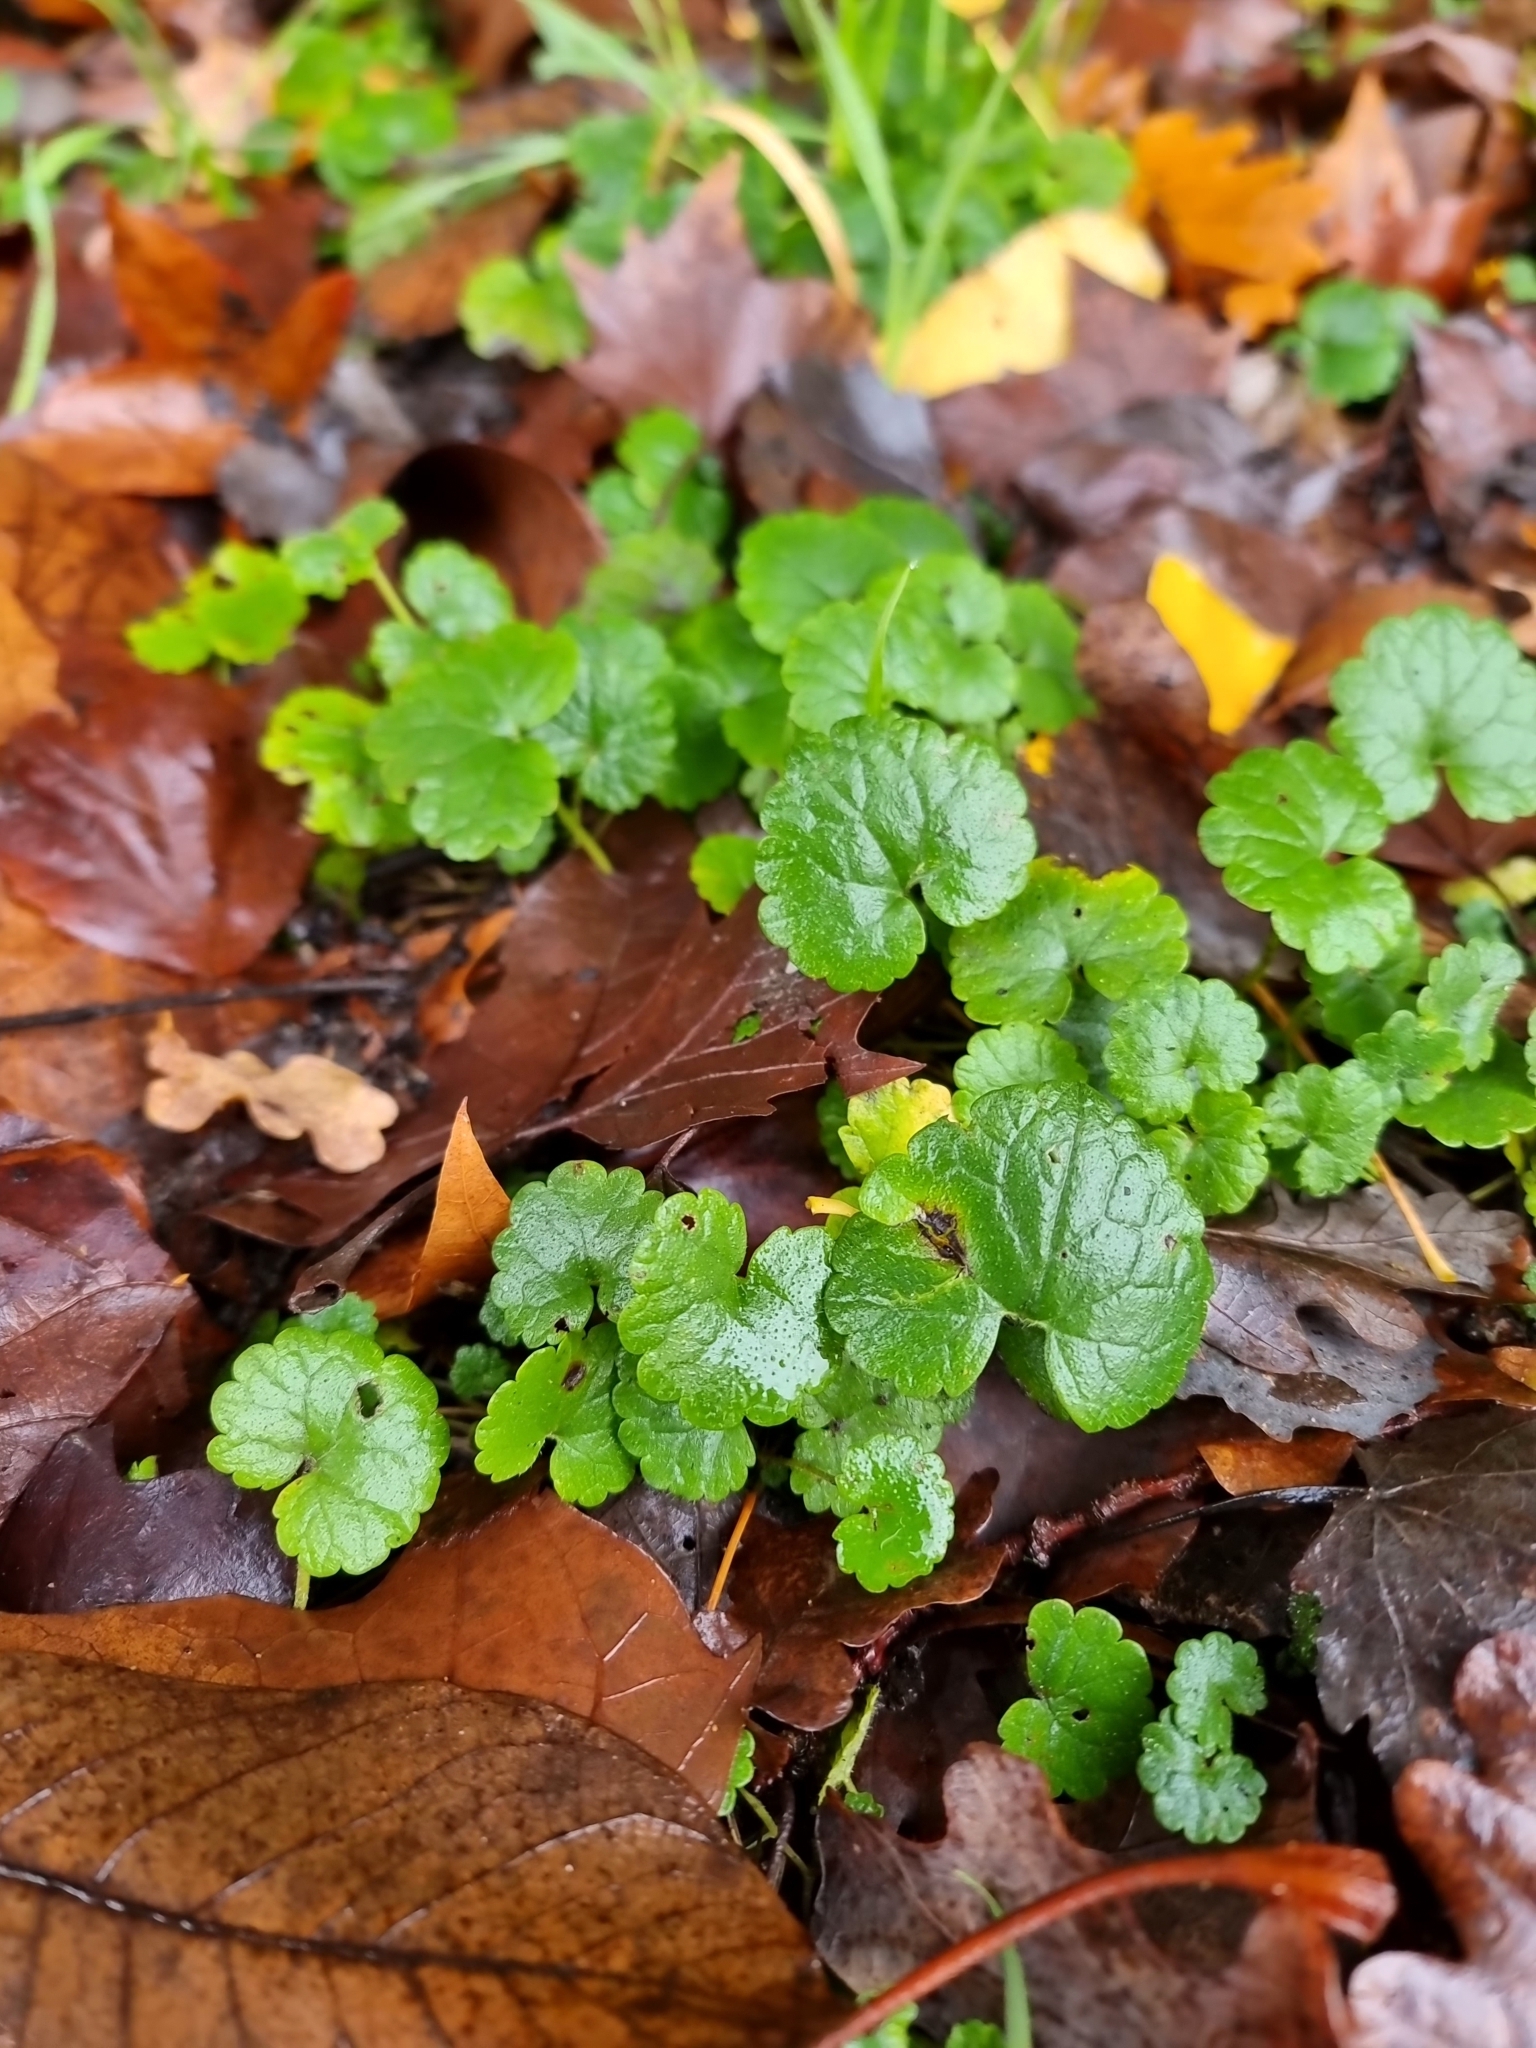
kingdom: Plantae
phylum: Tracheophyta
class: Magnoliopsida
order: Lamiales
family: Lamiaceae
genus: Glechoma
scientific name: Glechoma hederacea
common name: Ground ivy
